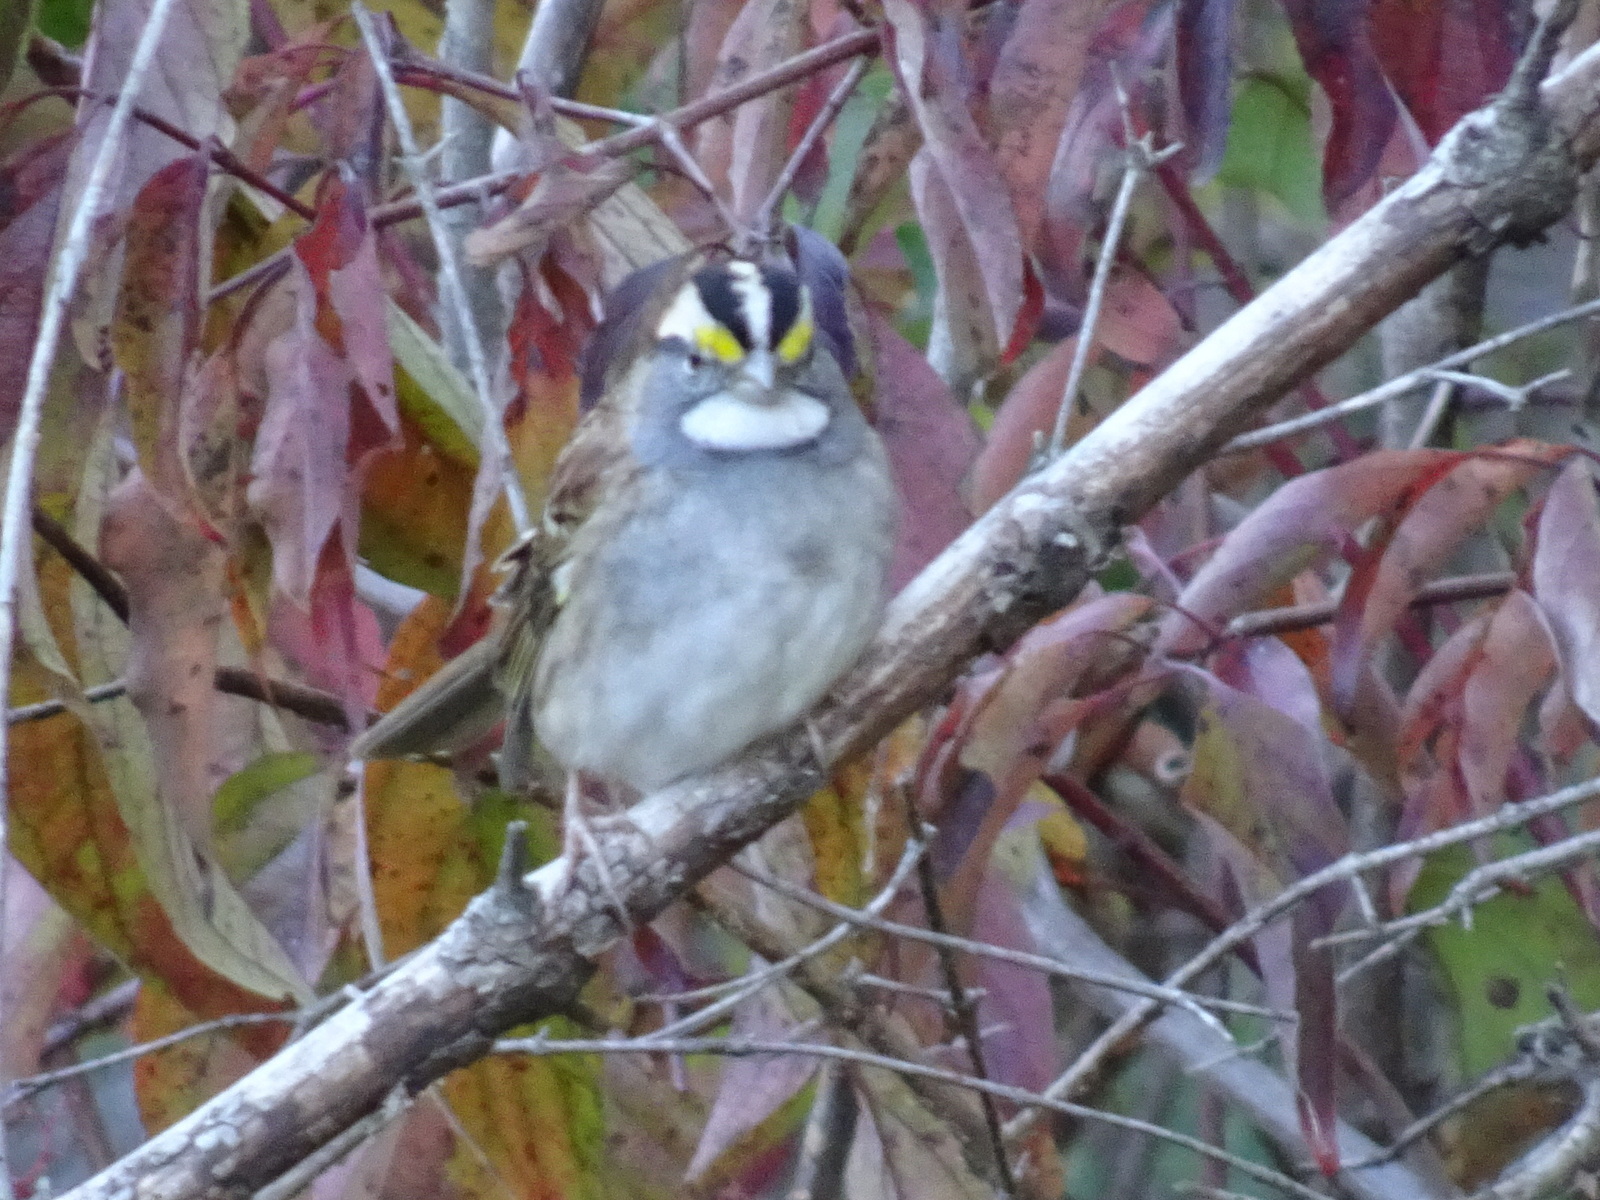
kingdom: Animalia
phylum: Chordata
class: Aves
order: Passeriformes
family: Passerellidae
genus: Zonotrichia
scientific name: Zonotrichia albicollis
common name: White-throated sparrow
